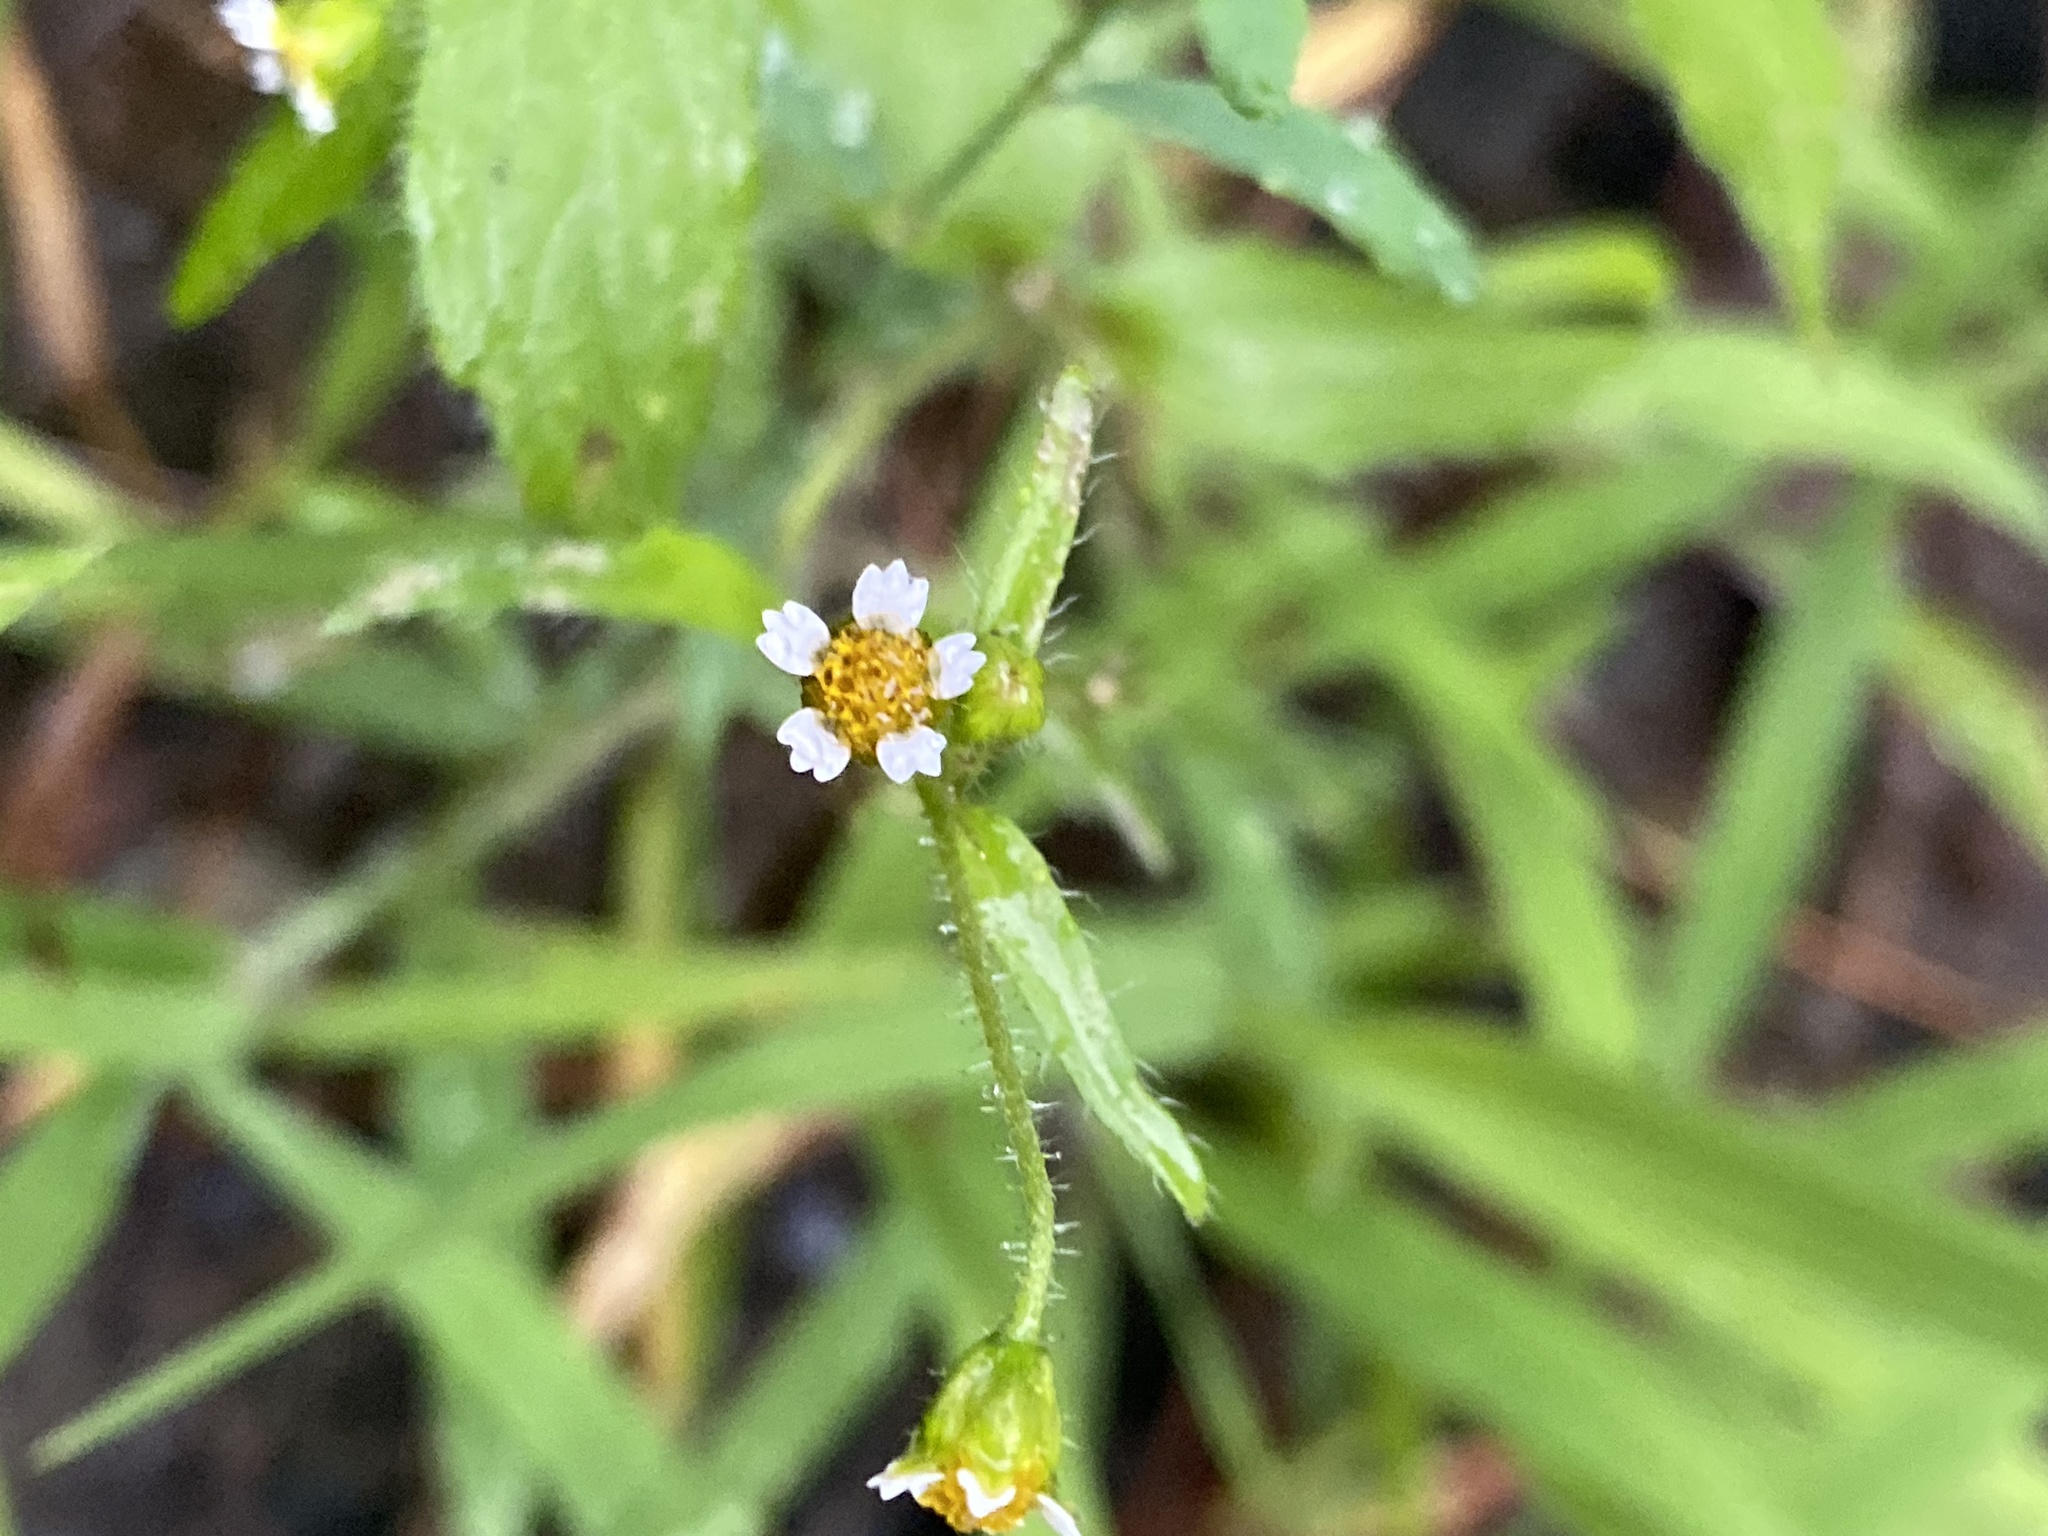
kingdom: Plantae
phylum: Tracheophyta
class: Magnoliopsida
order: Asterales
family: Asteraceae
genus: Galinsoga
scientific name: Galinsoga quadriradiata
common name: Shaggy soldier
